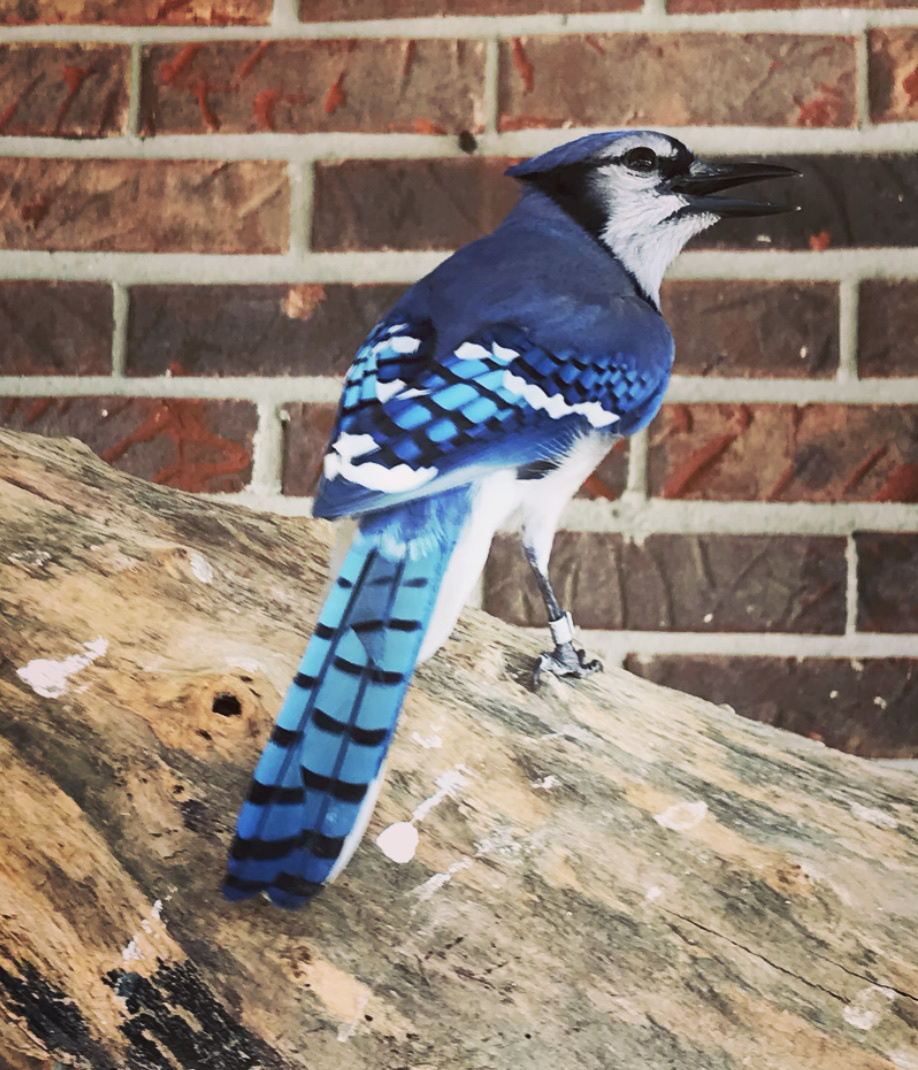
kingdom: Animalia
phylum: Chordata
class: Aves
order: Passeriformes
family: Corvidae
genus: Cyanocitta
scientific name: Cyanocitta cristata
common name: Blue jay
